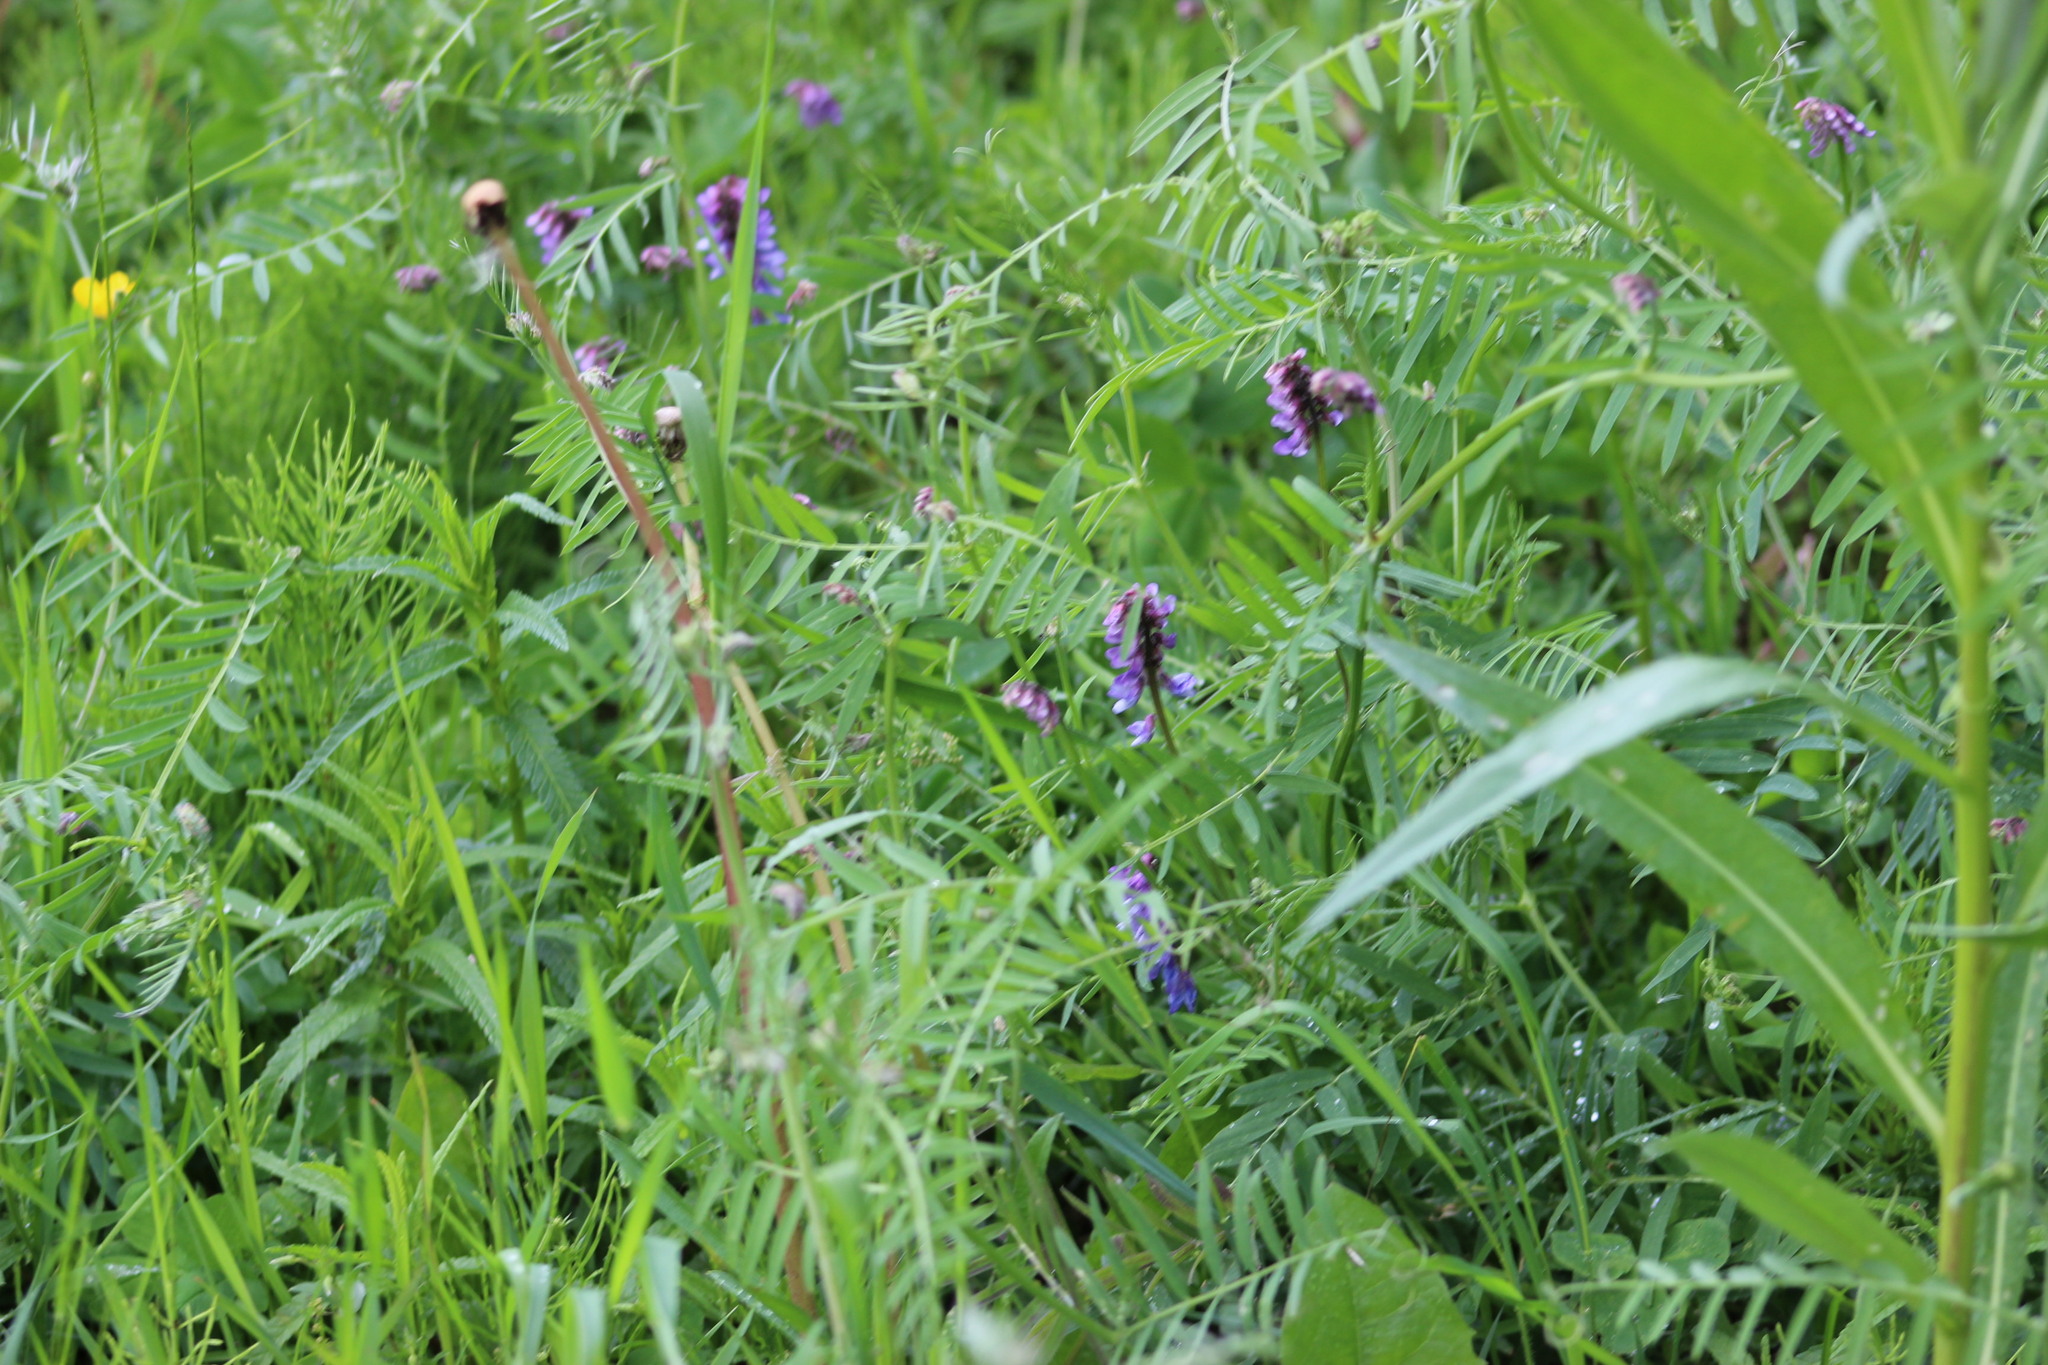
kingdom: Plantae
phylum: Tracheophyta
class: Magnoliopsida
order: Fabales
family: Fabaceae
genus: Vicia
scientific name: Vicia cracca
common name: Bird vetch
